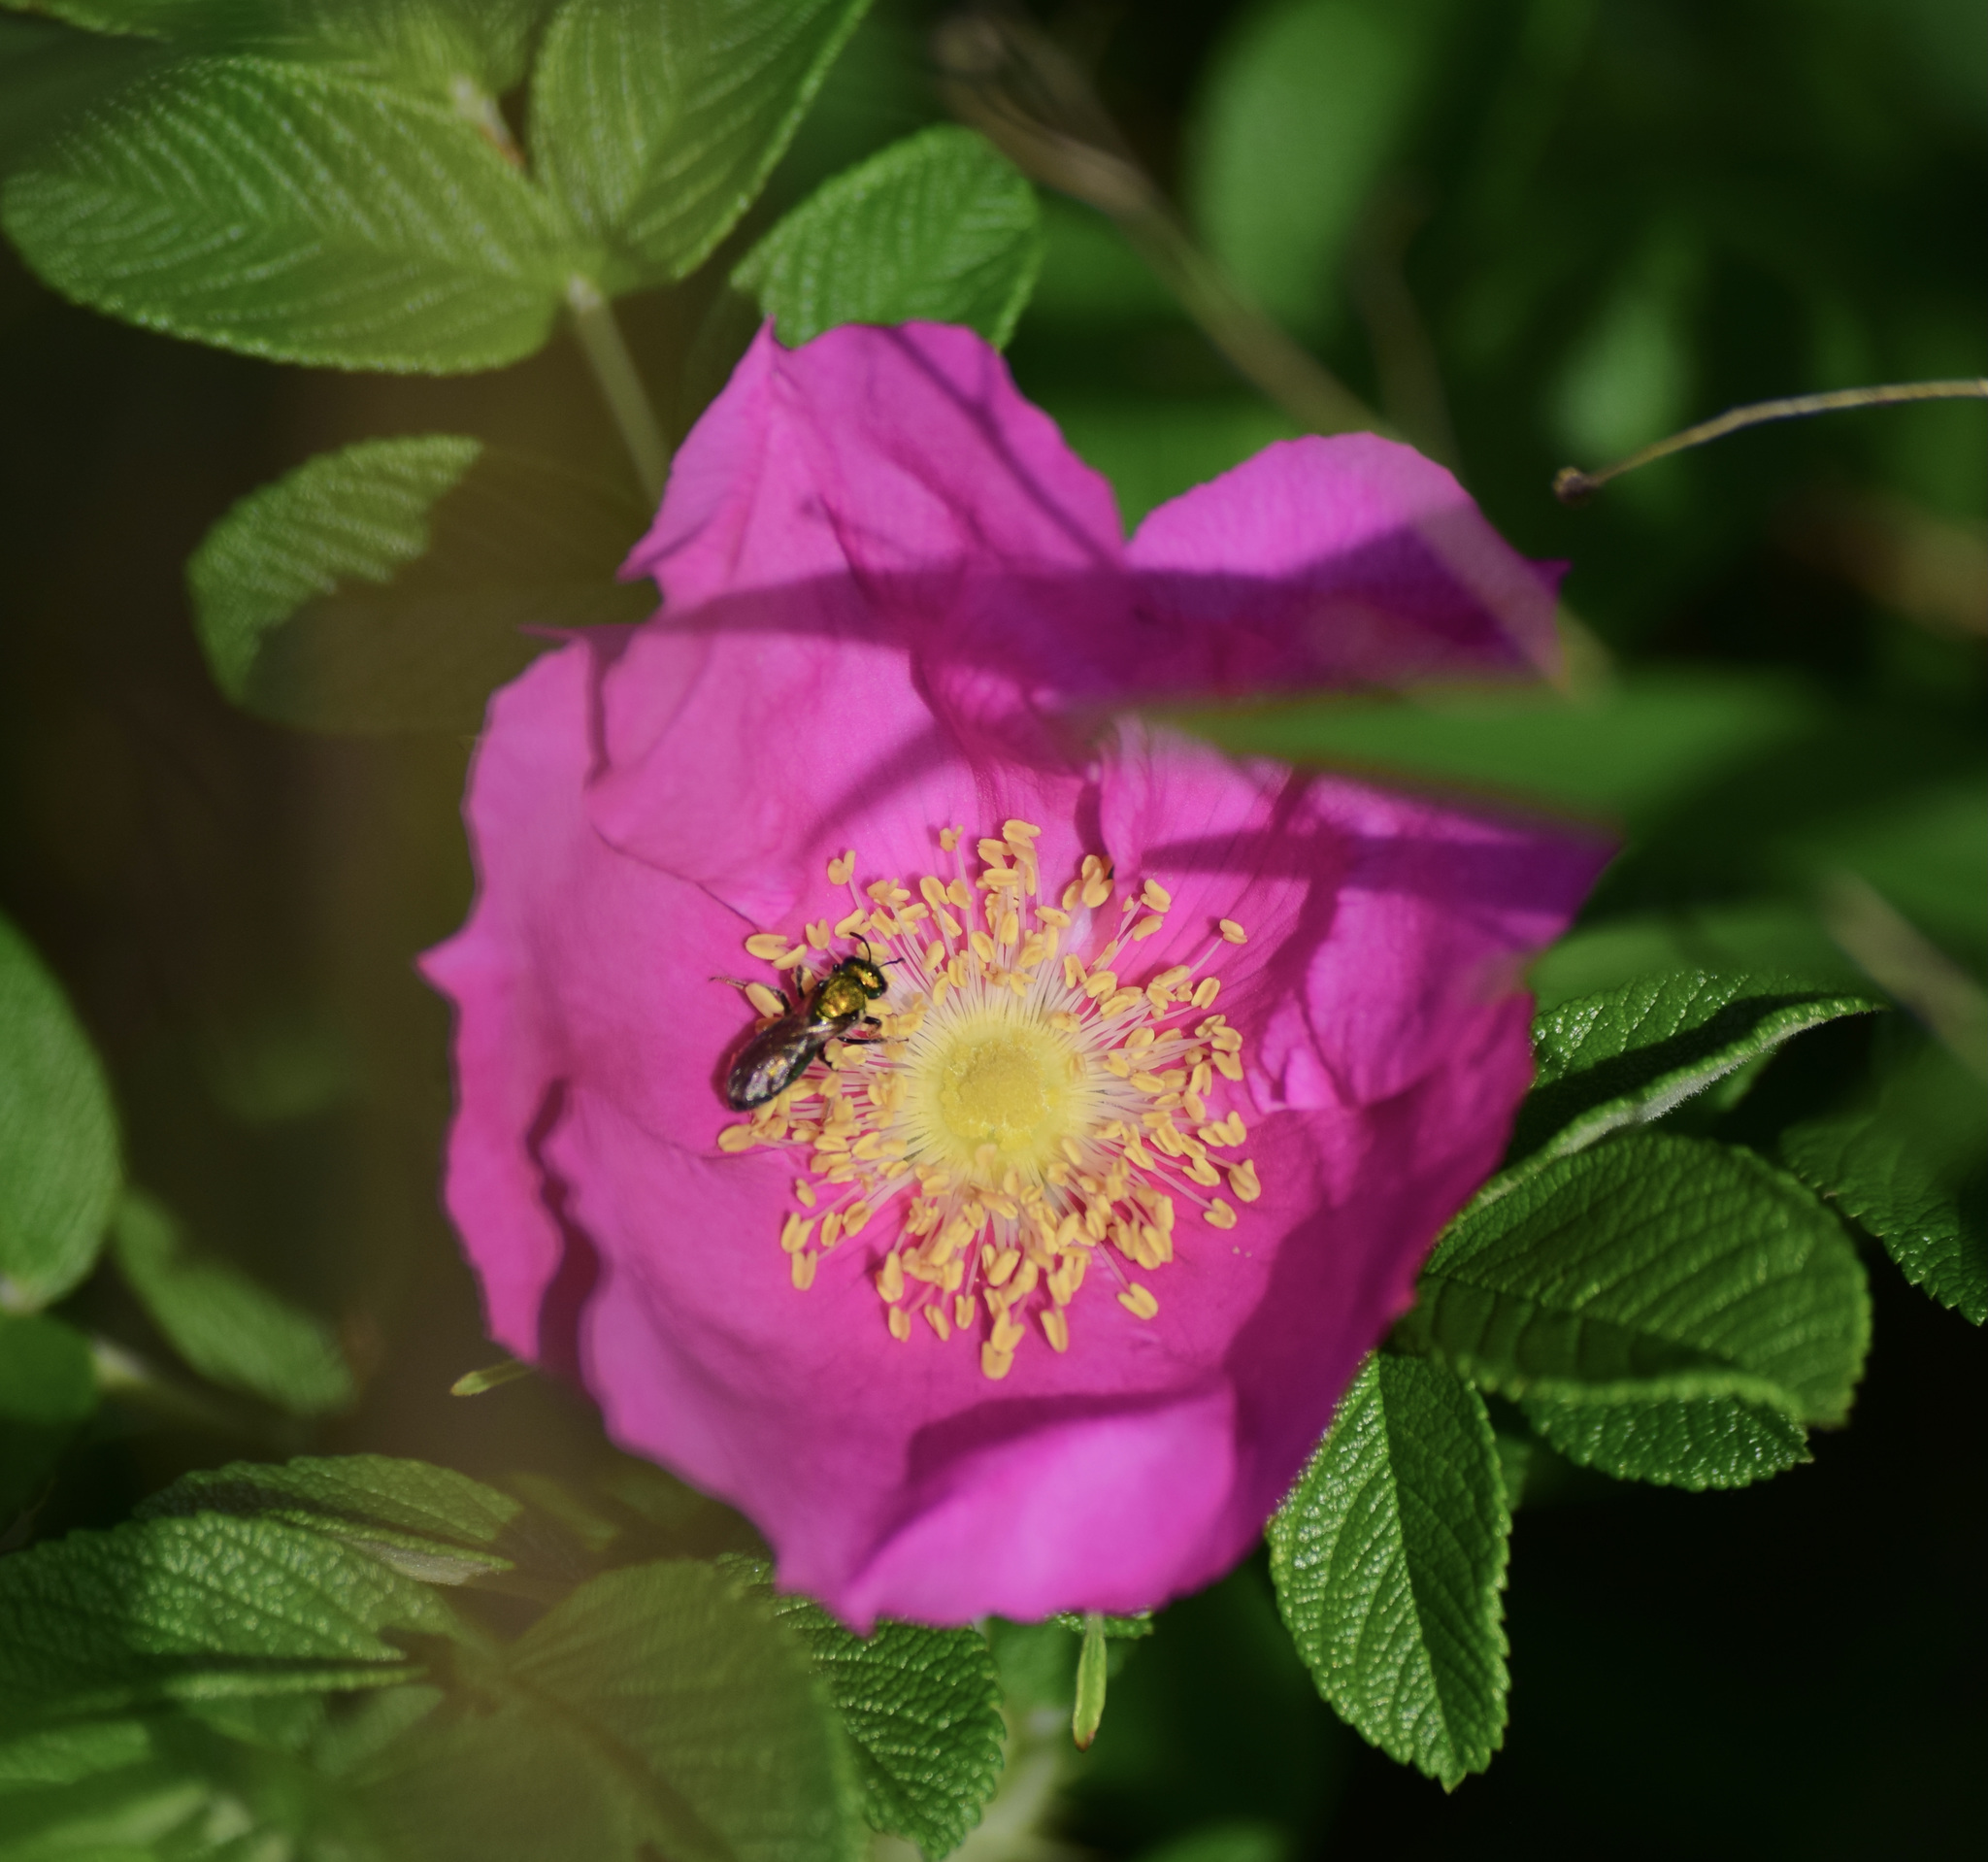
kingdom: Animalia
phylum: Arthropoda
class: Insecta
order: Hymenoptera
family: Halictidae
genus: Augochlora
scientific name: Augochlora pura
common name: Pure green sweat bee
